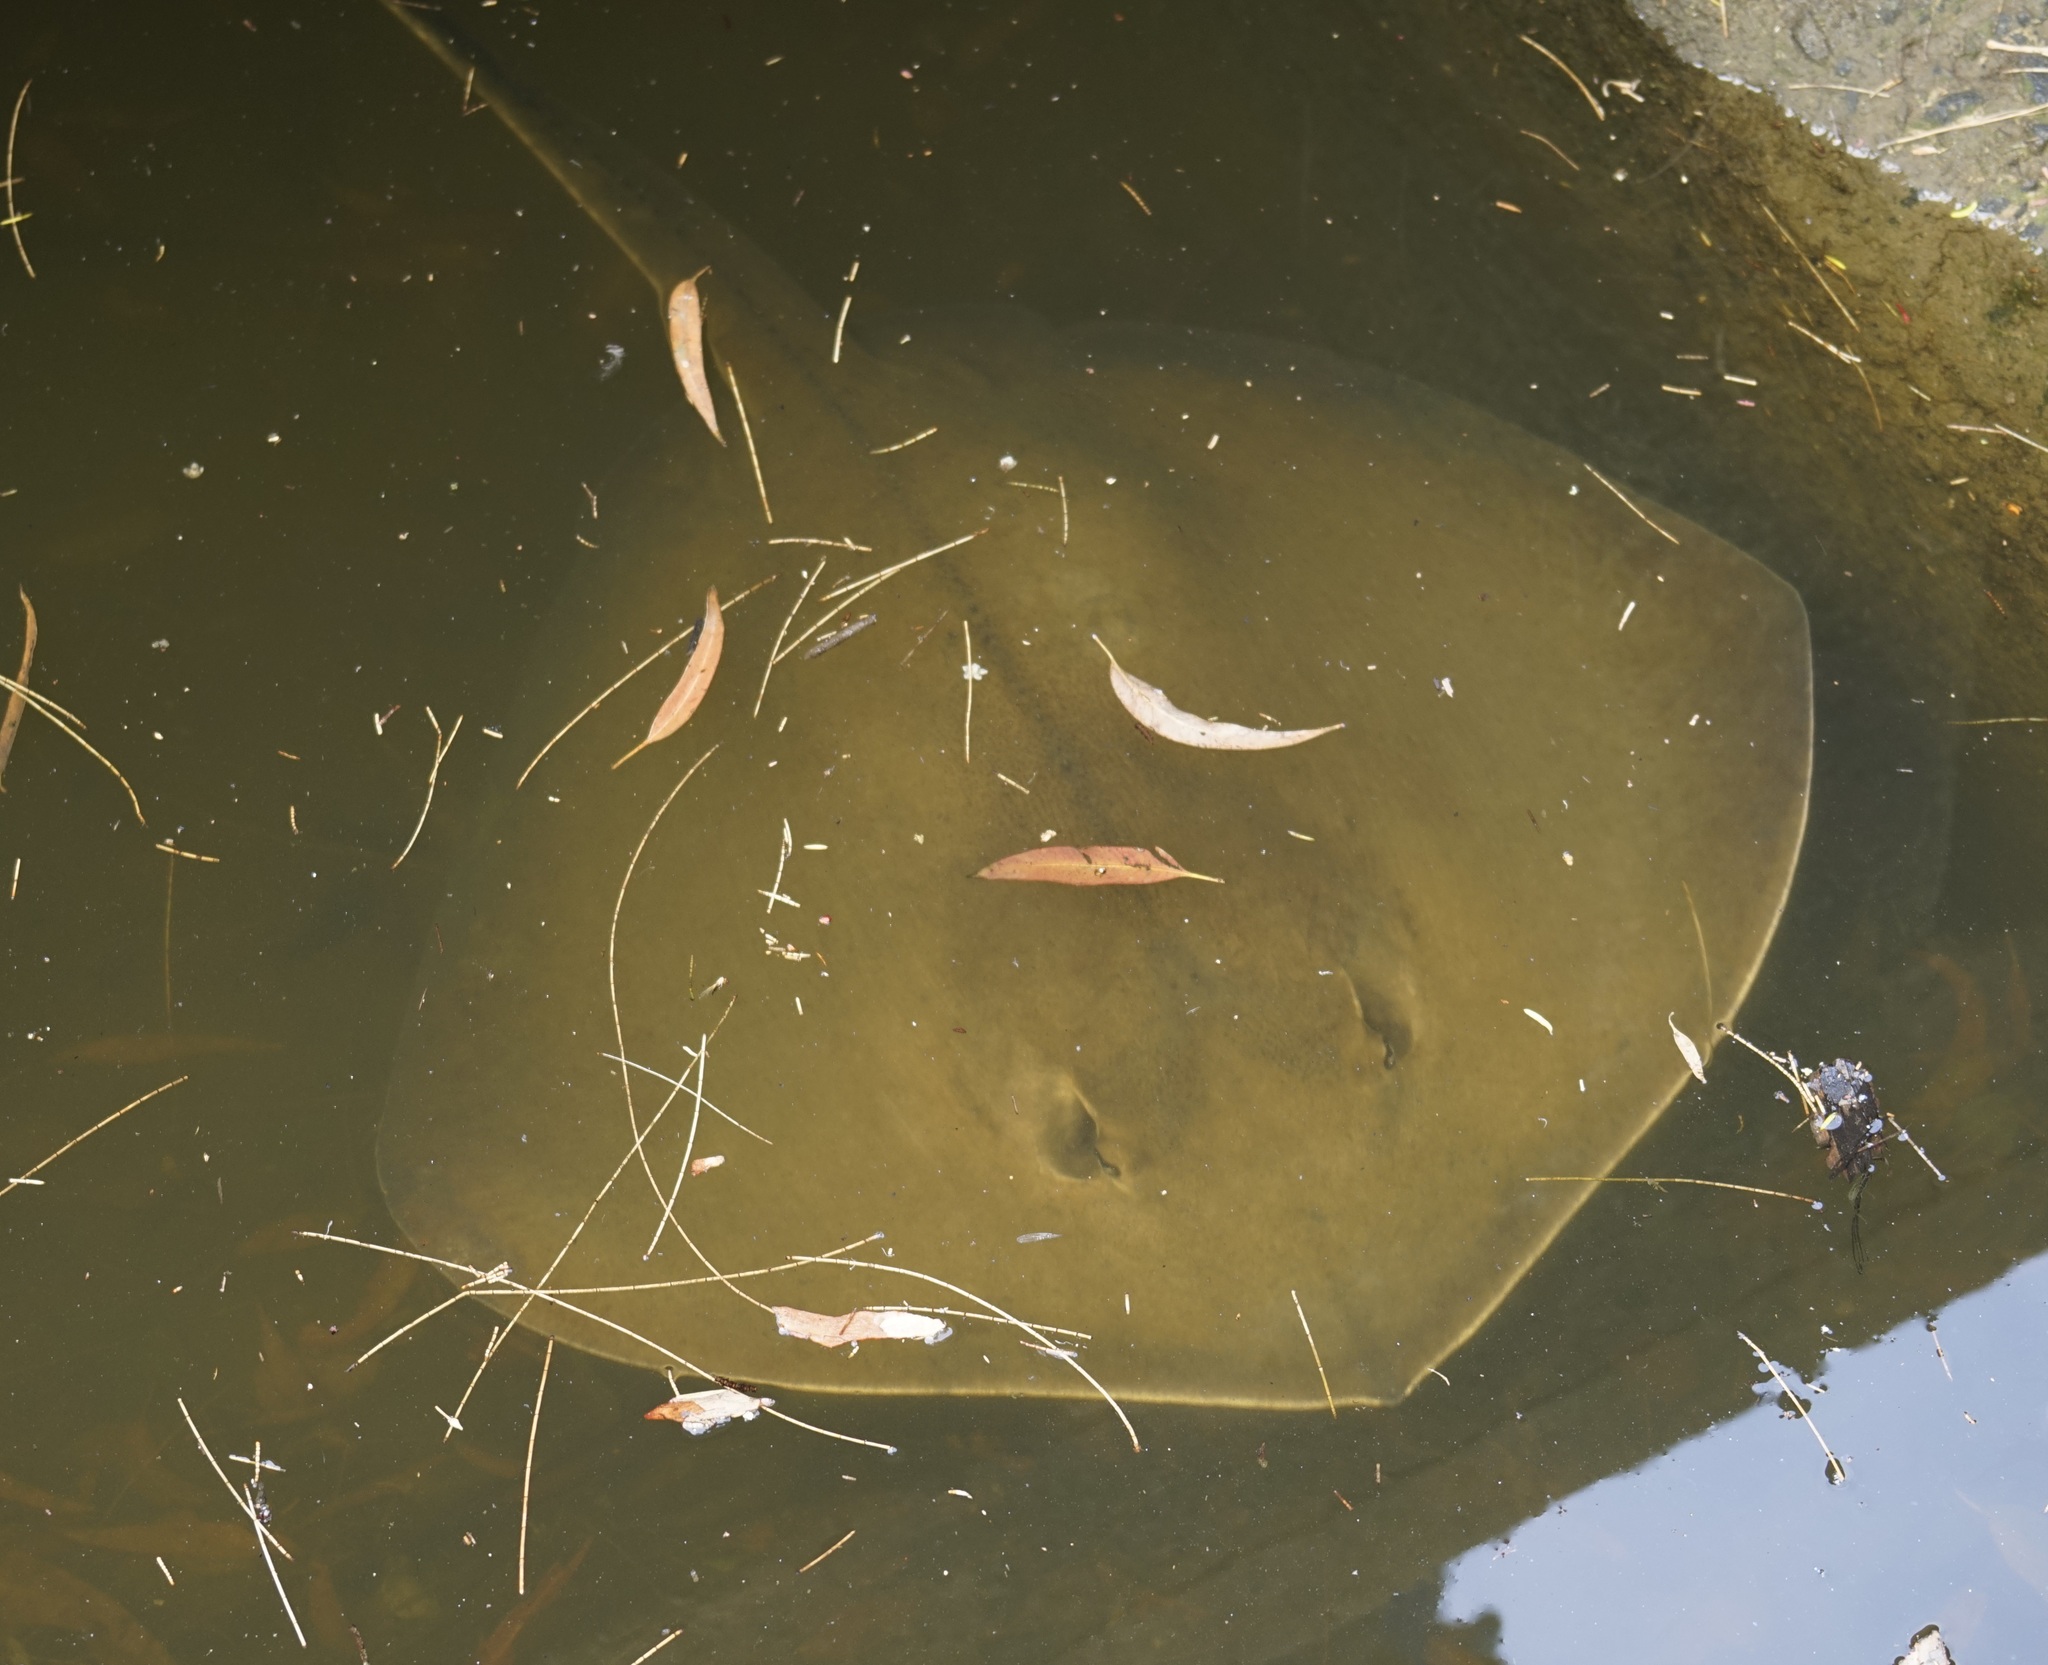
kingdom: Animalia
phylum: Chordata
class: Elasmobranchii
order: Myliobatiformes
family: Dasyatidae
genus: Hemitrygon
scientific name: Hemitrygon fluviorum
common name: Estuary stingray
